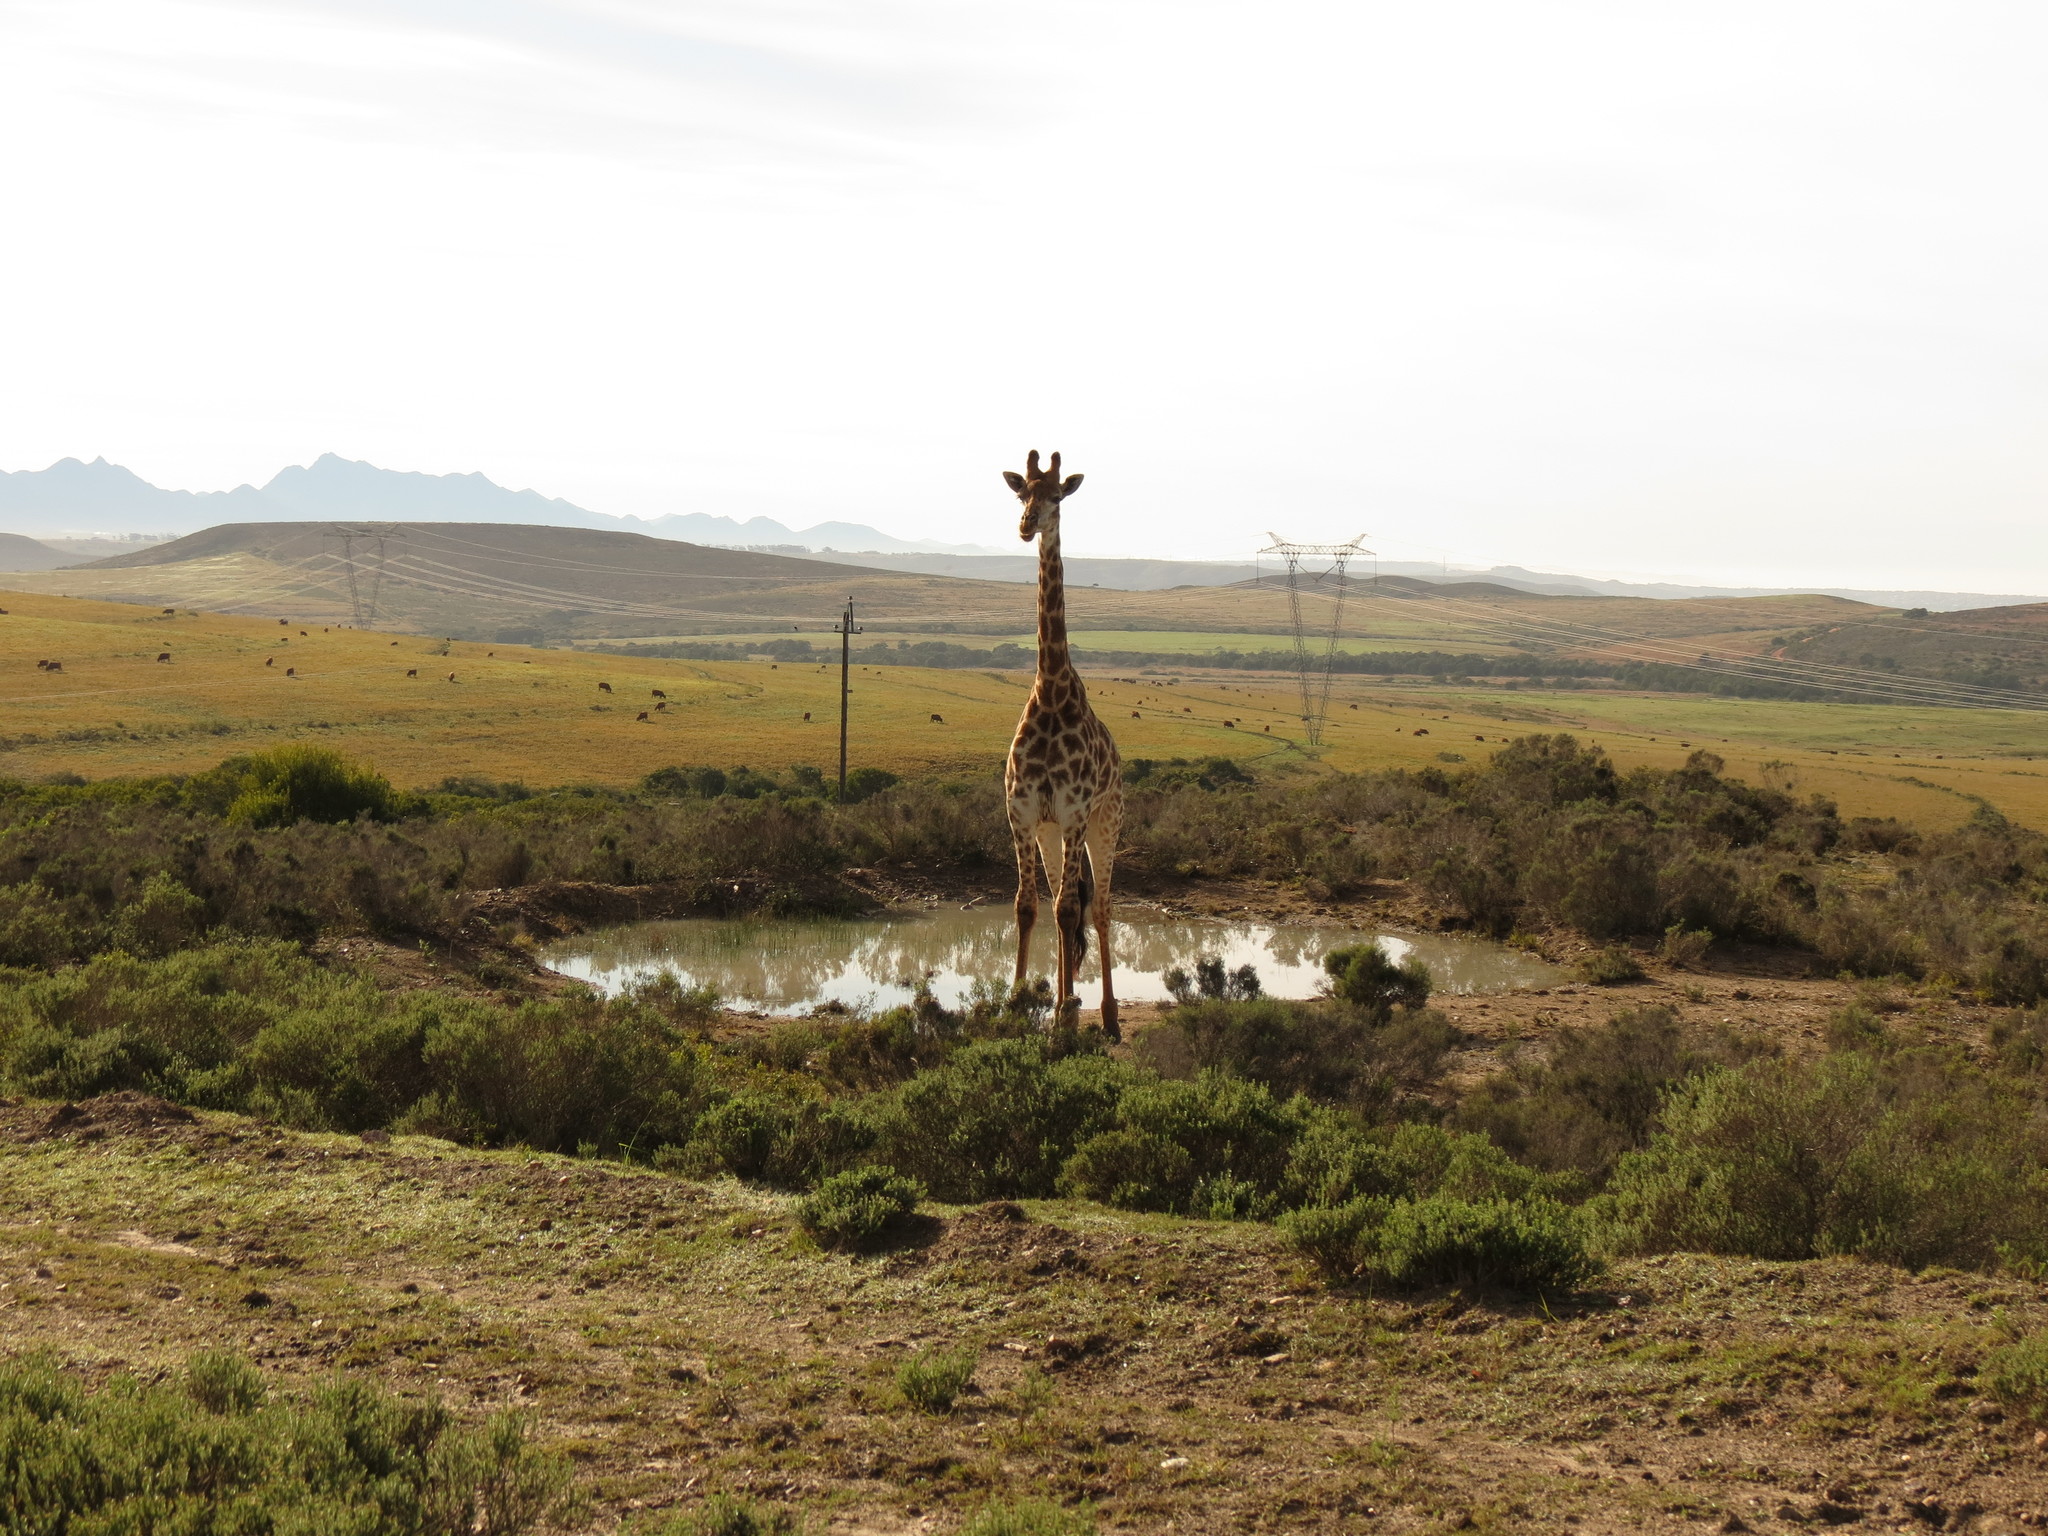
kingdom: Animalia
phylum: Chordata
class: Mammalia
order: Artiodactyla
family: Giraffidae
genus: Giraffa
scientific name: Giraffa giraffa
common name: Southern giraffe
